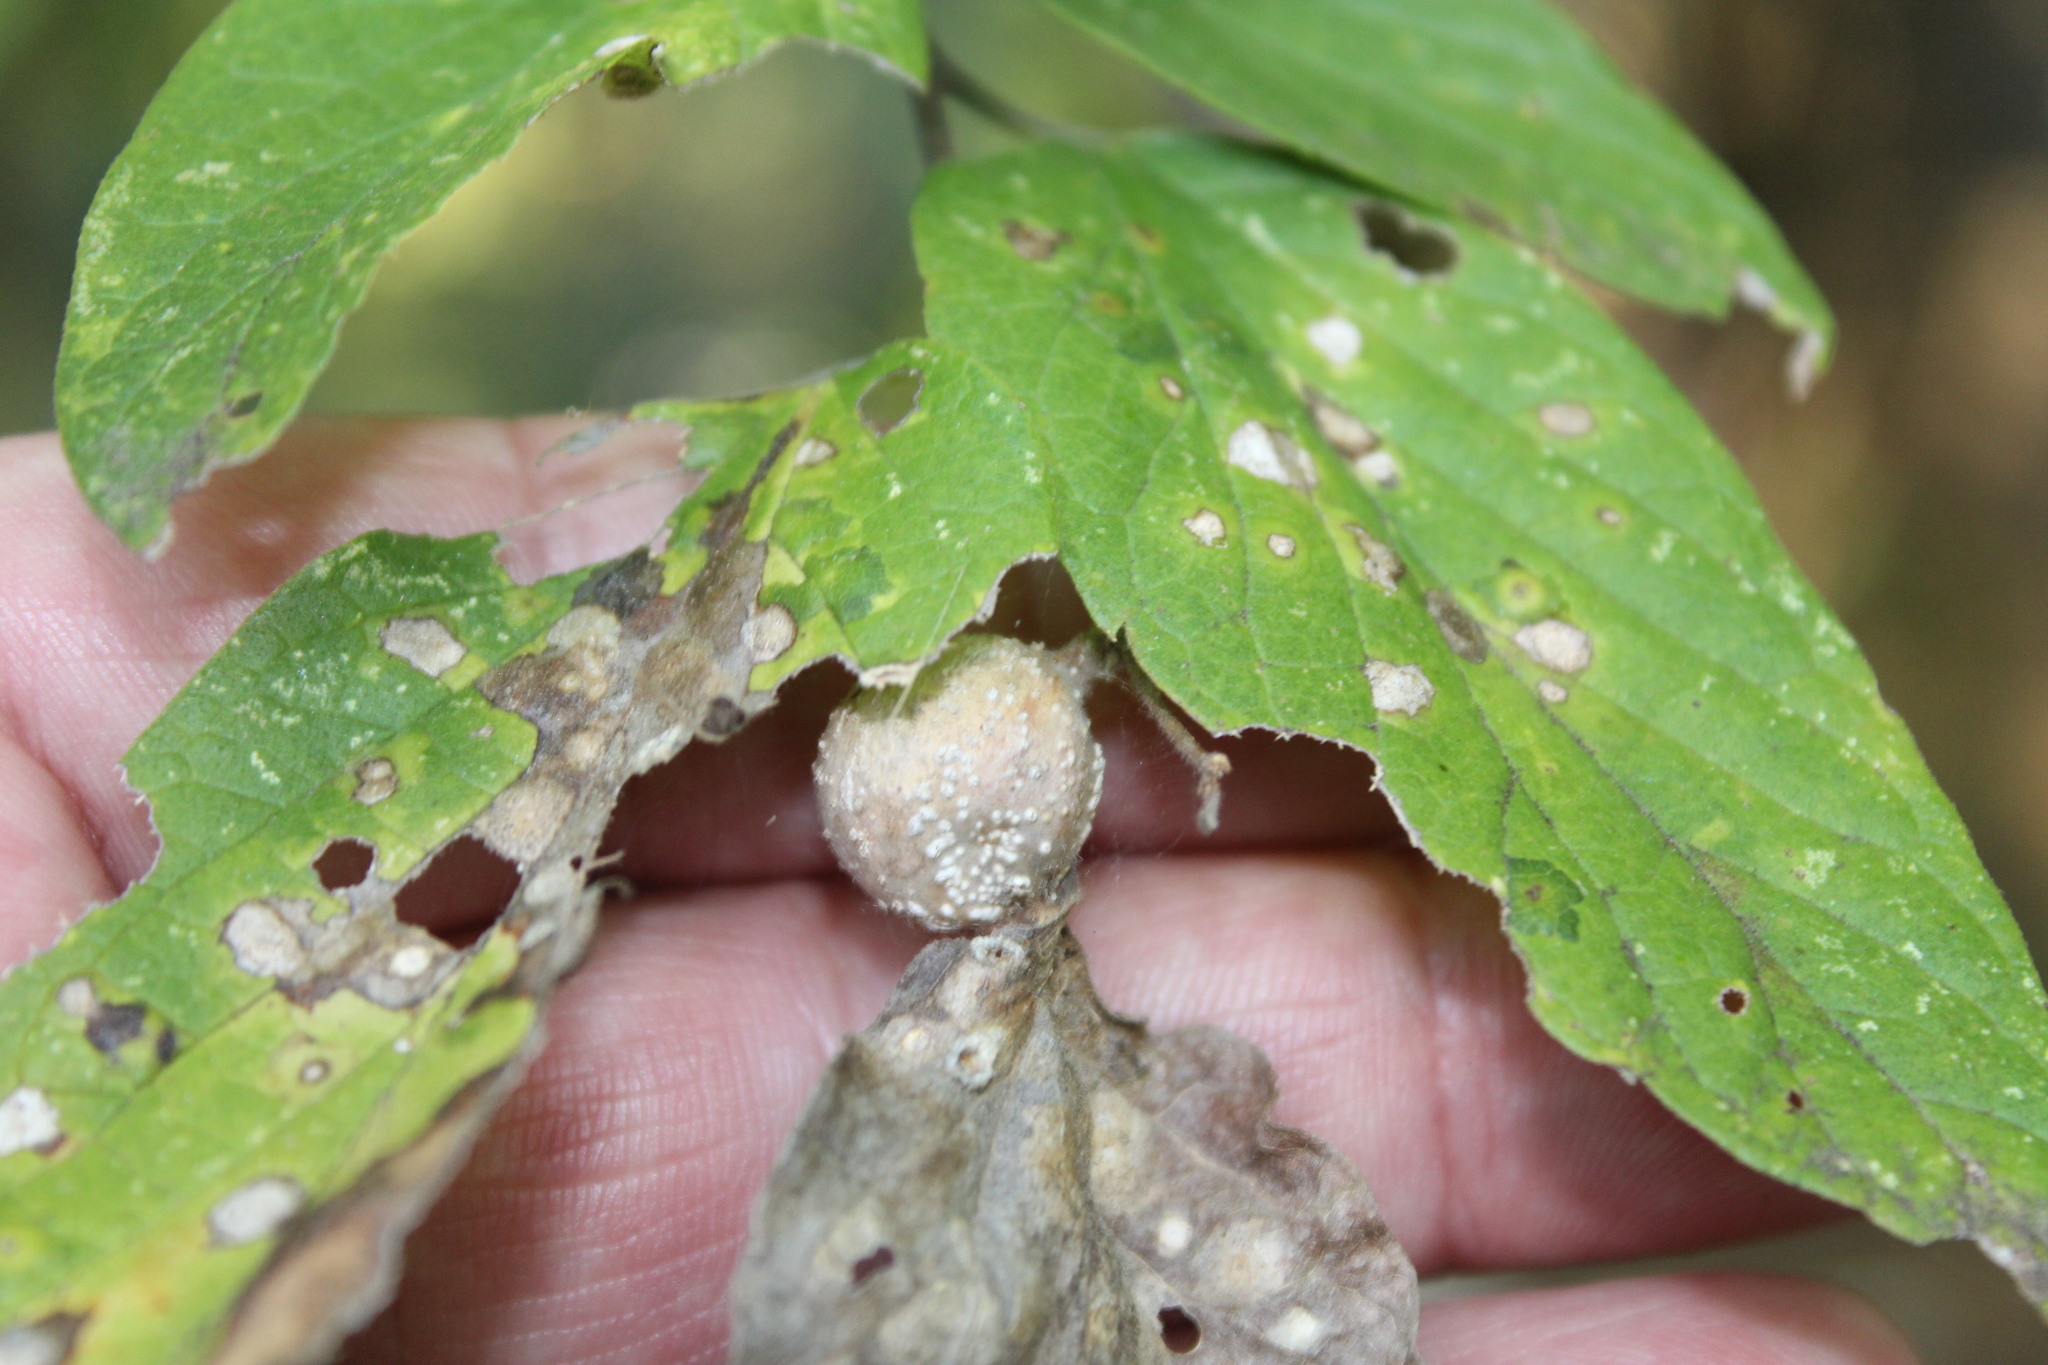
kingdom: Animalia
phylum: Arthropoda
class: Insecta
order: Hemiptera
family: Aphalaridae
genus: Pachypsylla
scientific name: Pachypsylla venusta
